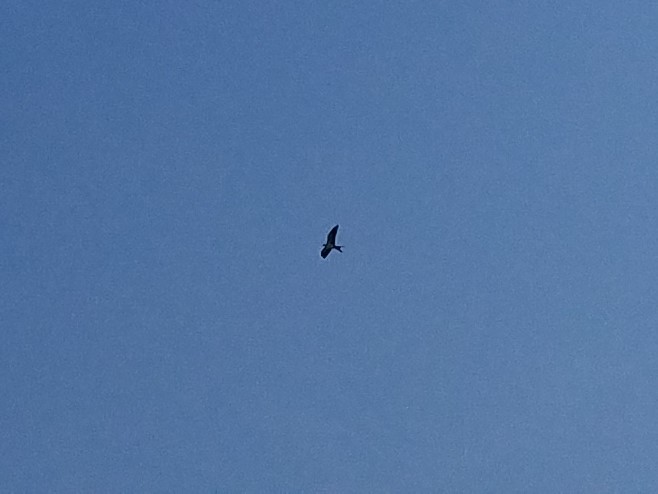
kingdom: Animalia
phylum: Chordata
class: Aves
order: Accipitriformes
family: Accipitridae
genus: Elanoides
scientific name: Elanoides forficatus
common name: Swallow-tailed kite
